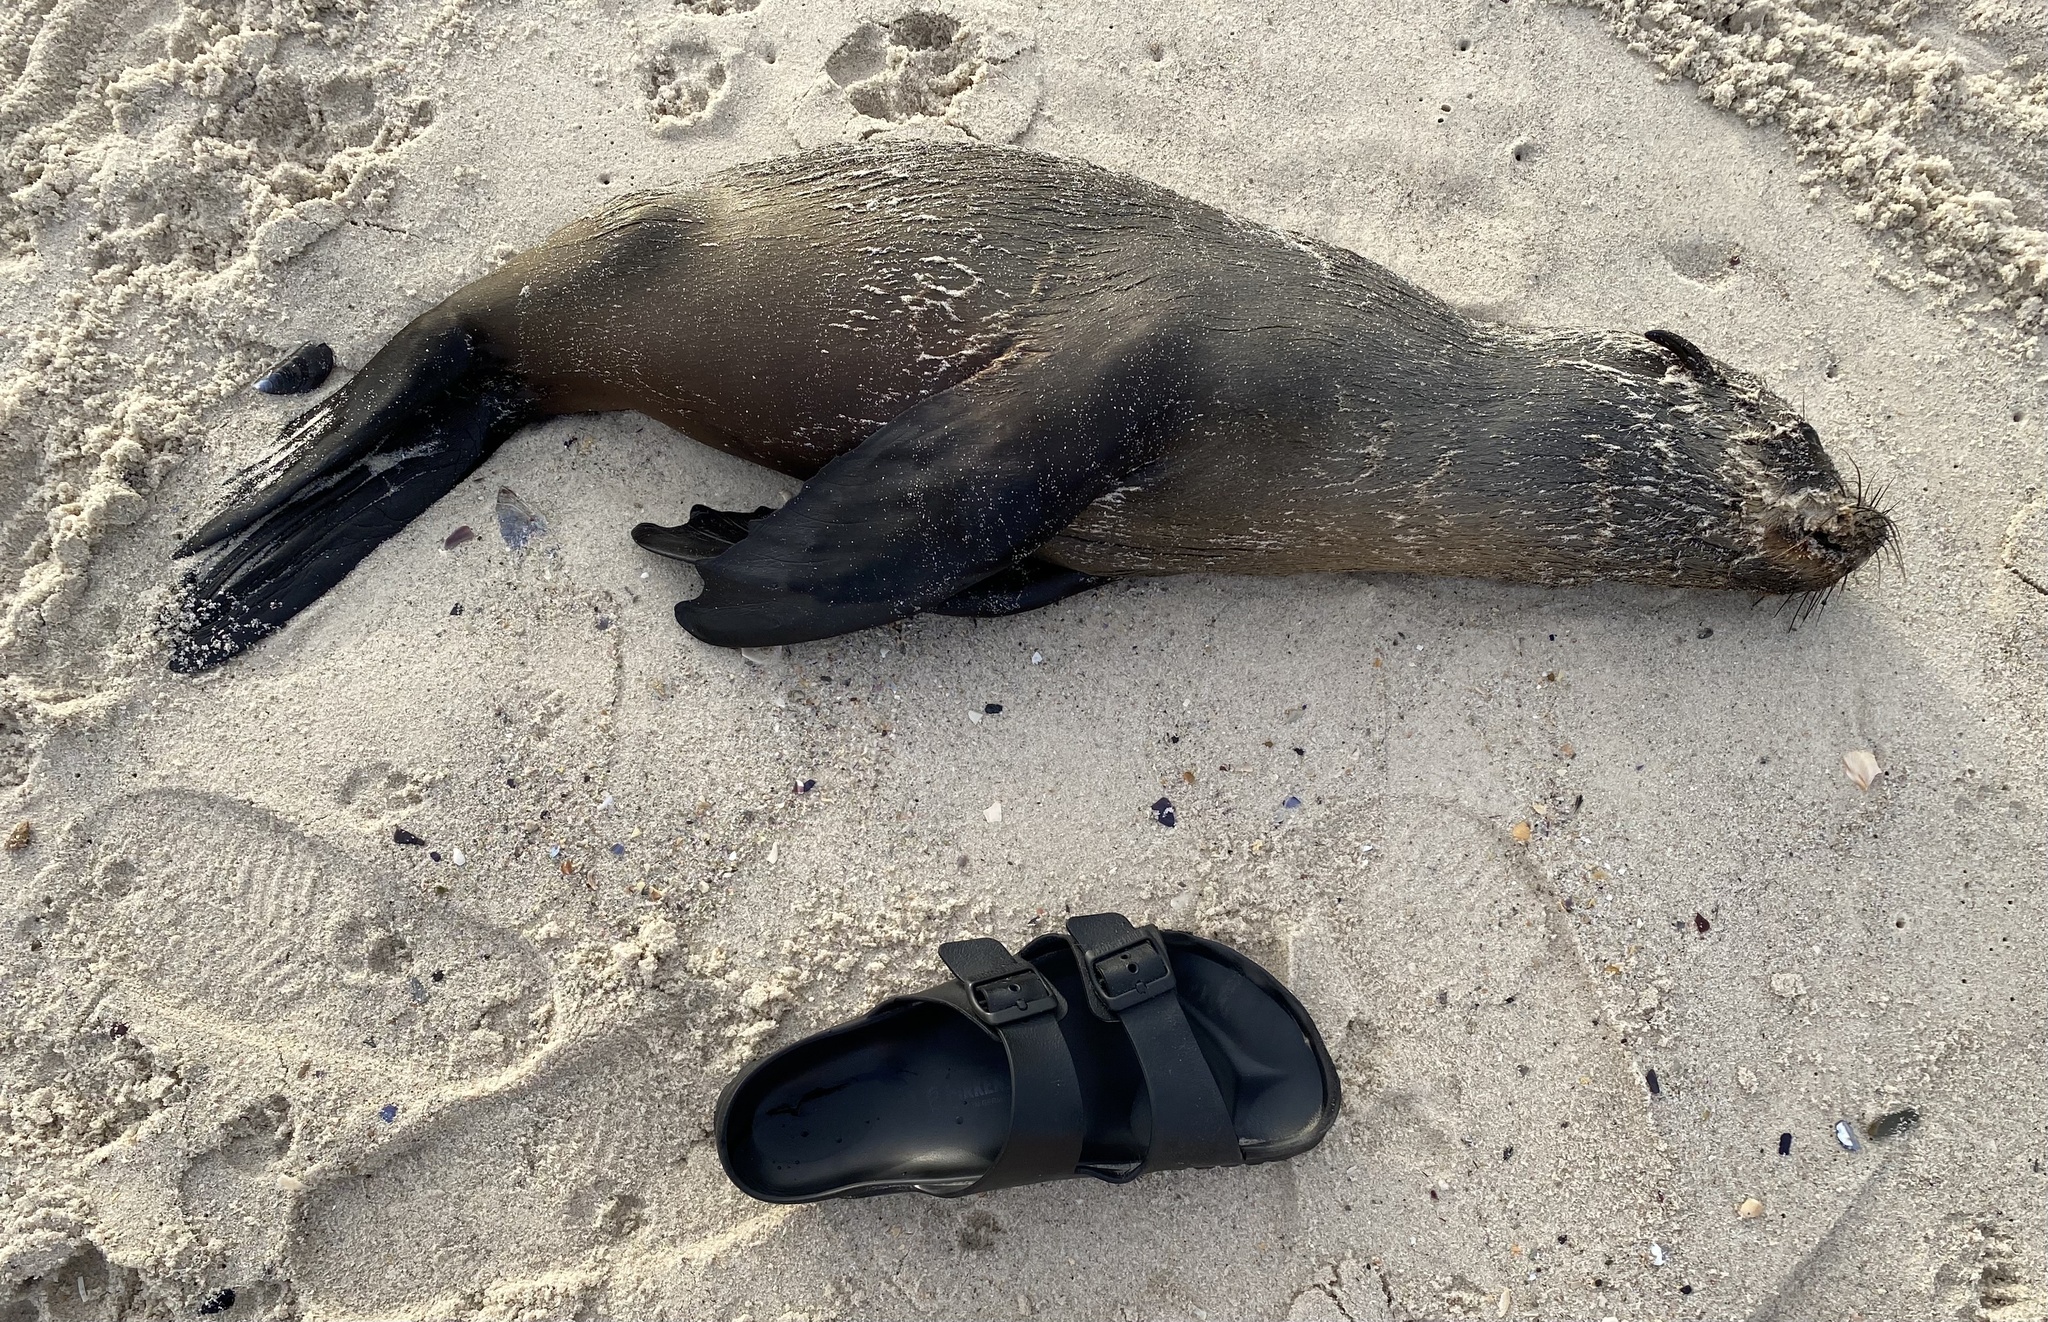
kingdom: Animalia
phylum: Chordata
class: Mammalia
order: Carnivora
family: Otariidae
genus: Arctocephalus
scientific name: Arctocephalus pusillus
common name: Brown fur seal
